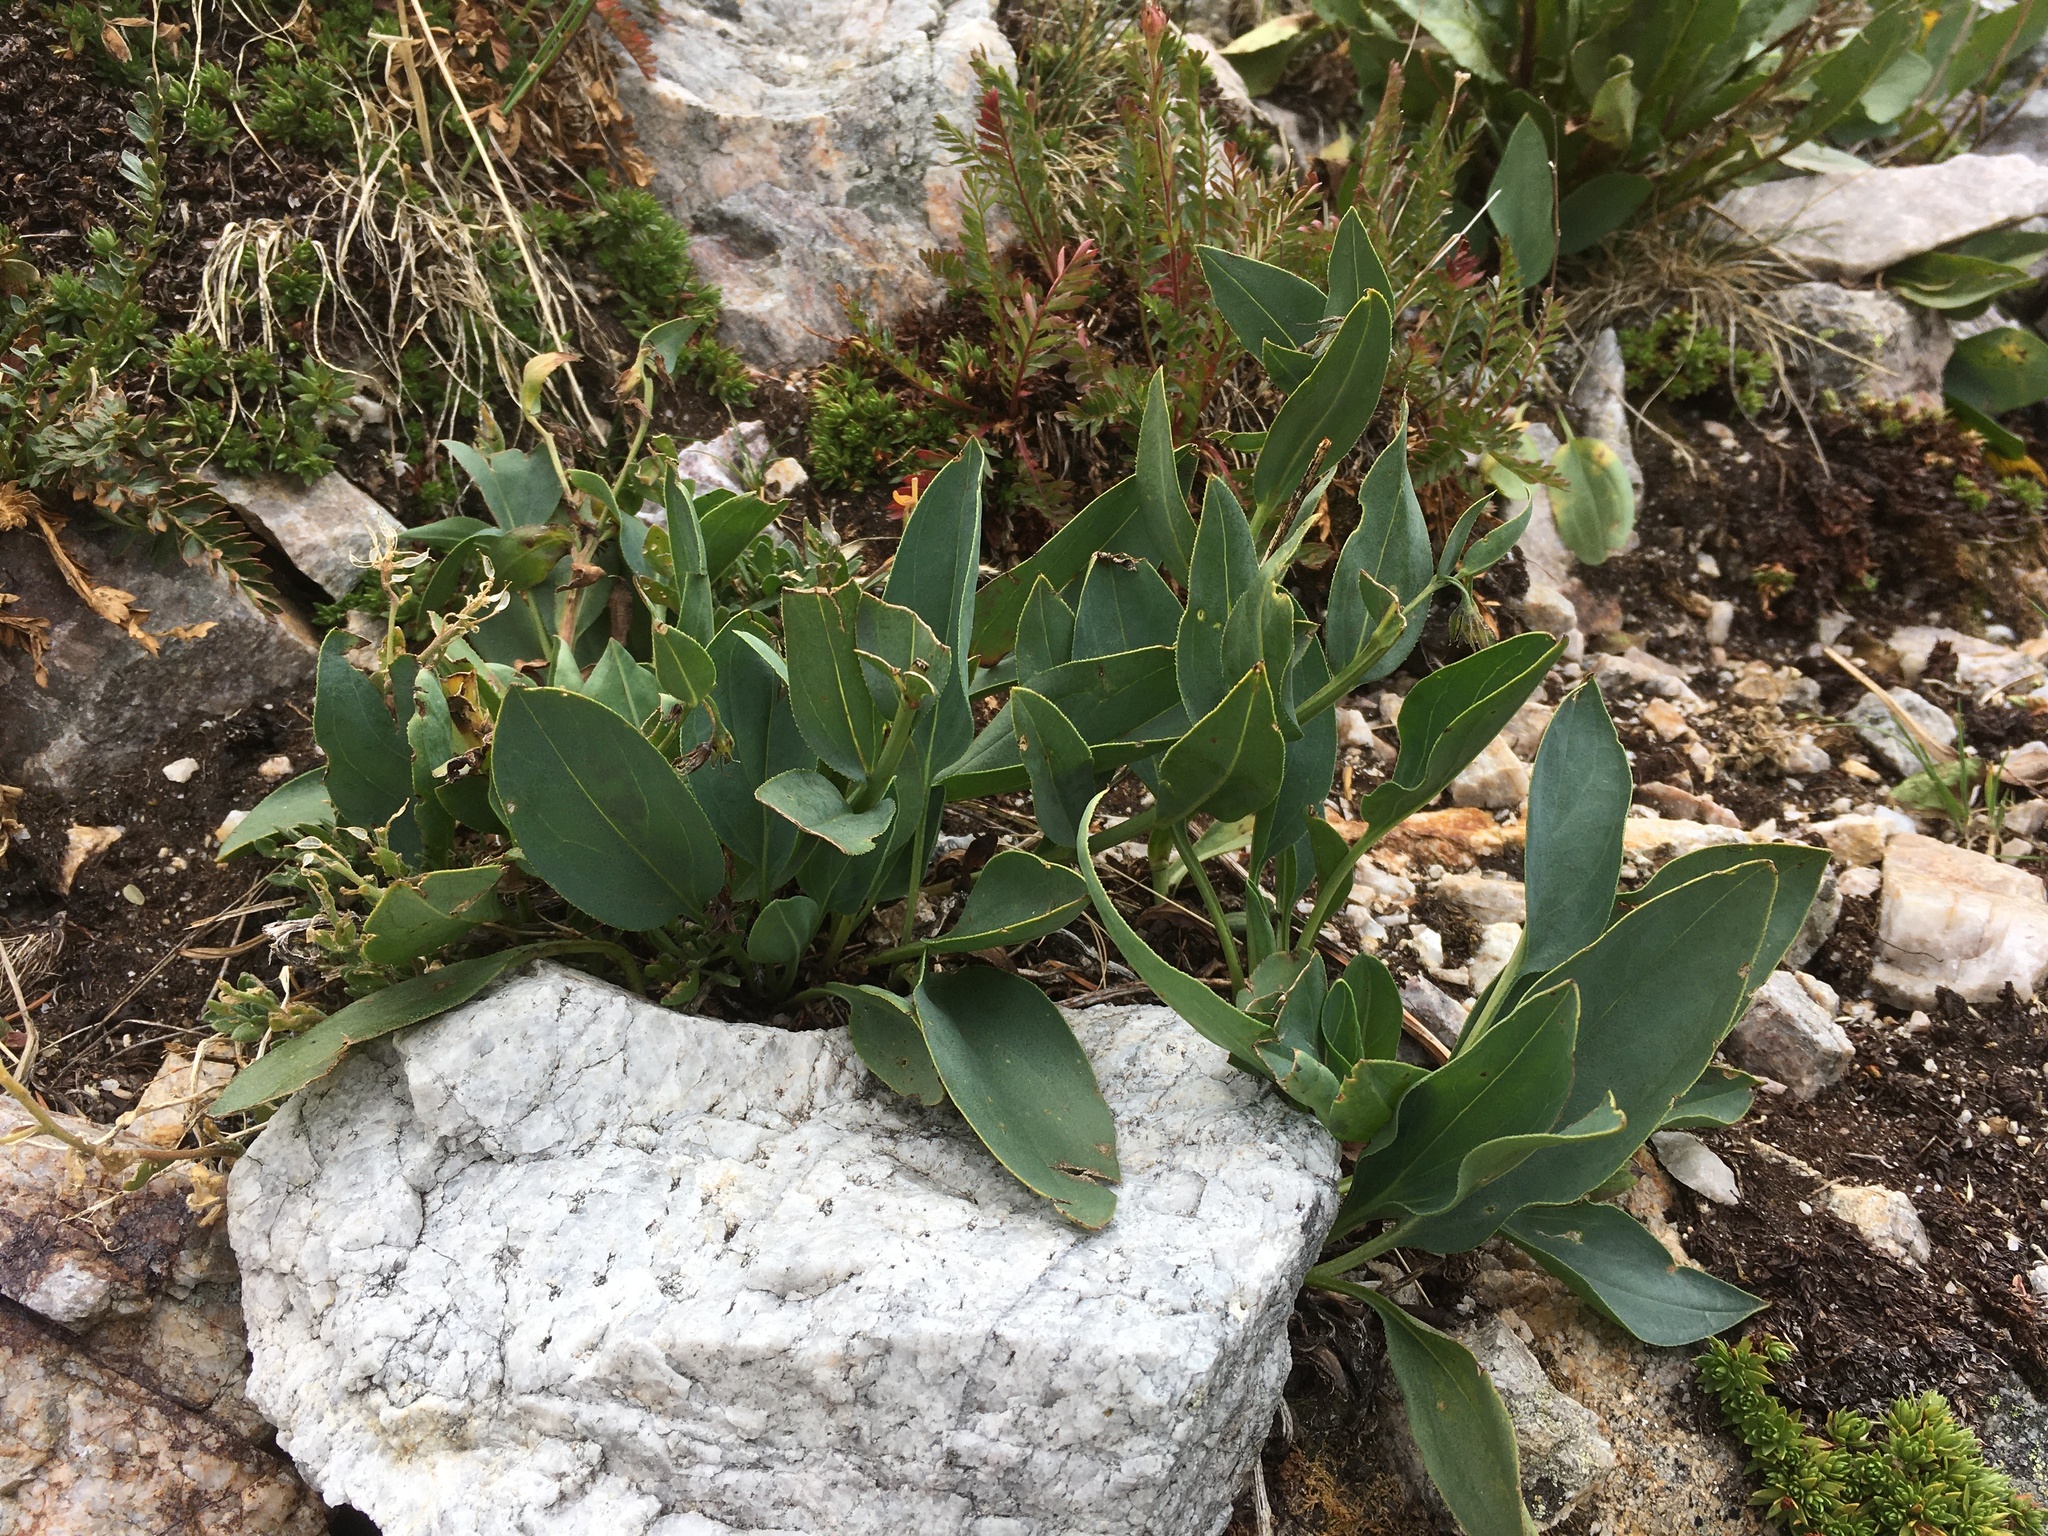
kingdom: Plantae
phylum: Tracheophyta
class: Magnoliopsida
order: Boraginales
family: Boraginaceae
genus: Mertensia
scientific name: Mertensia ovata
